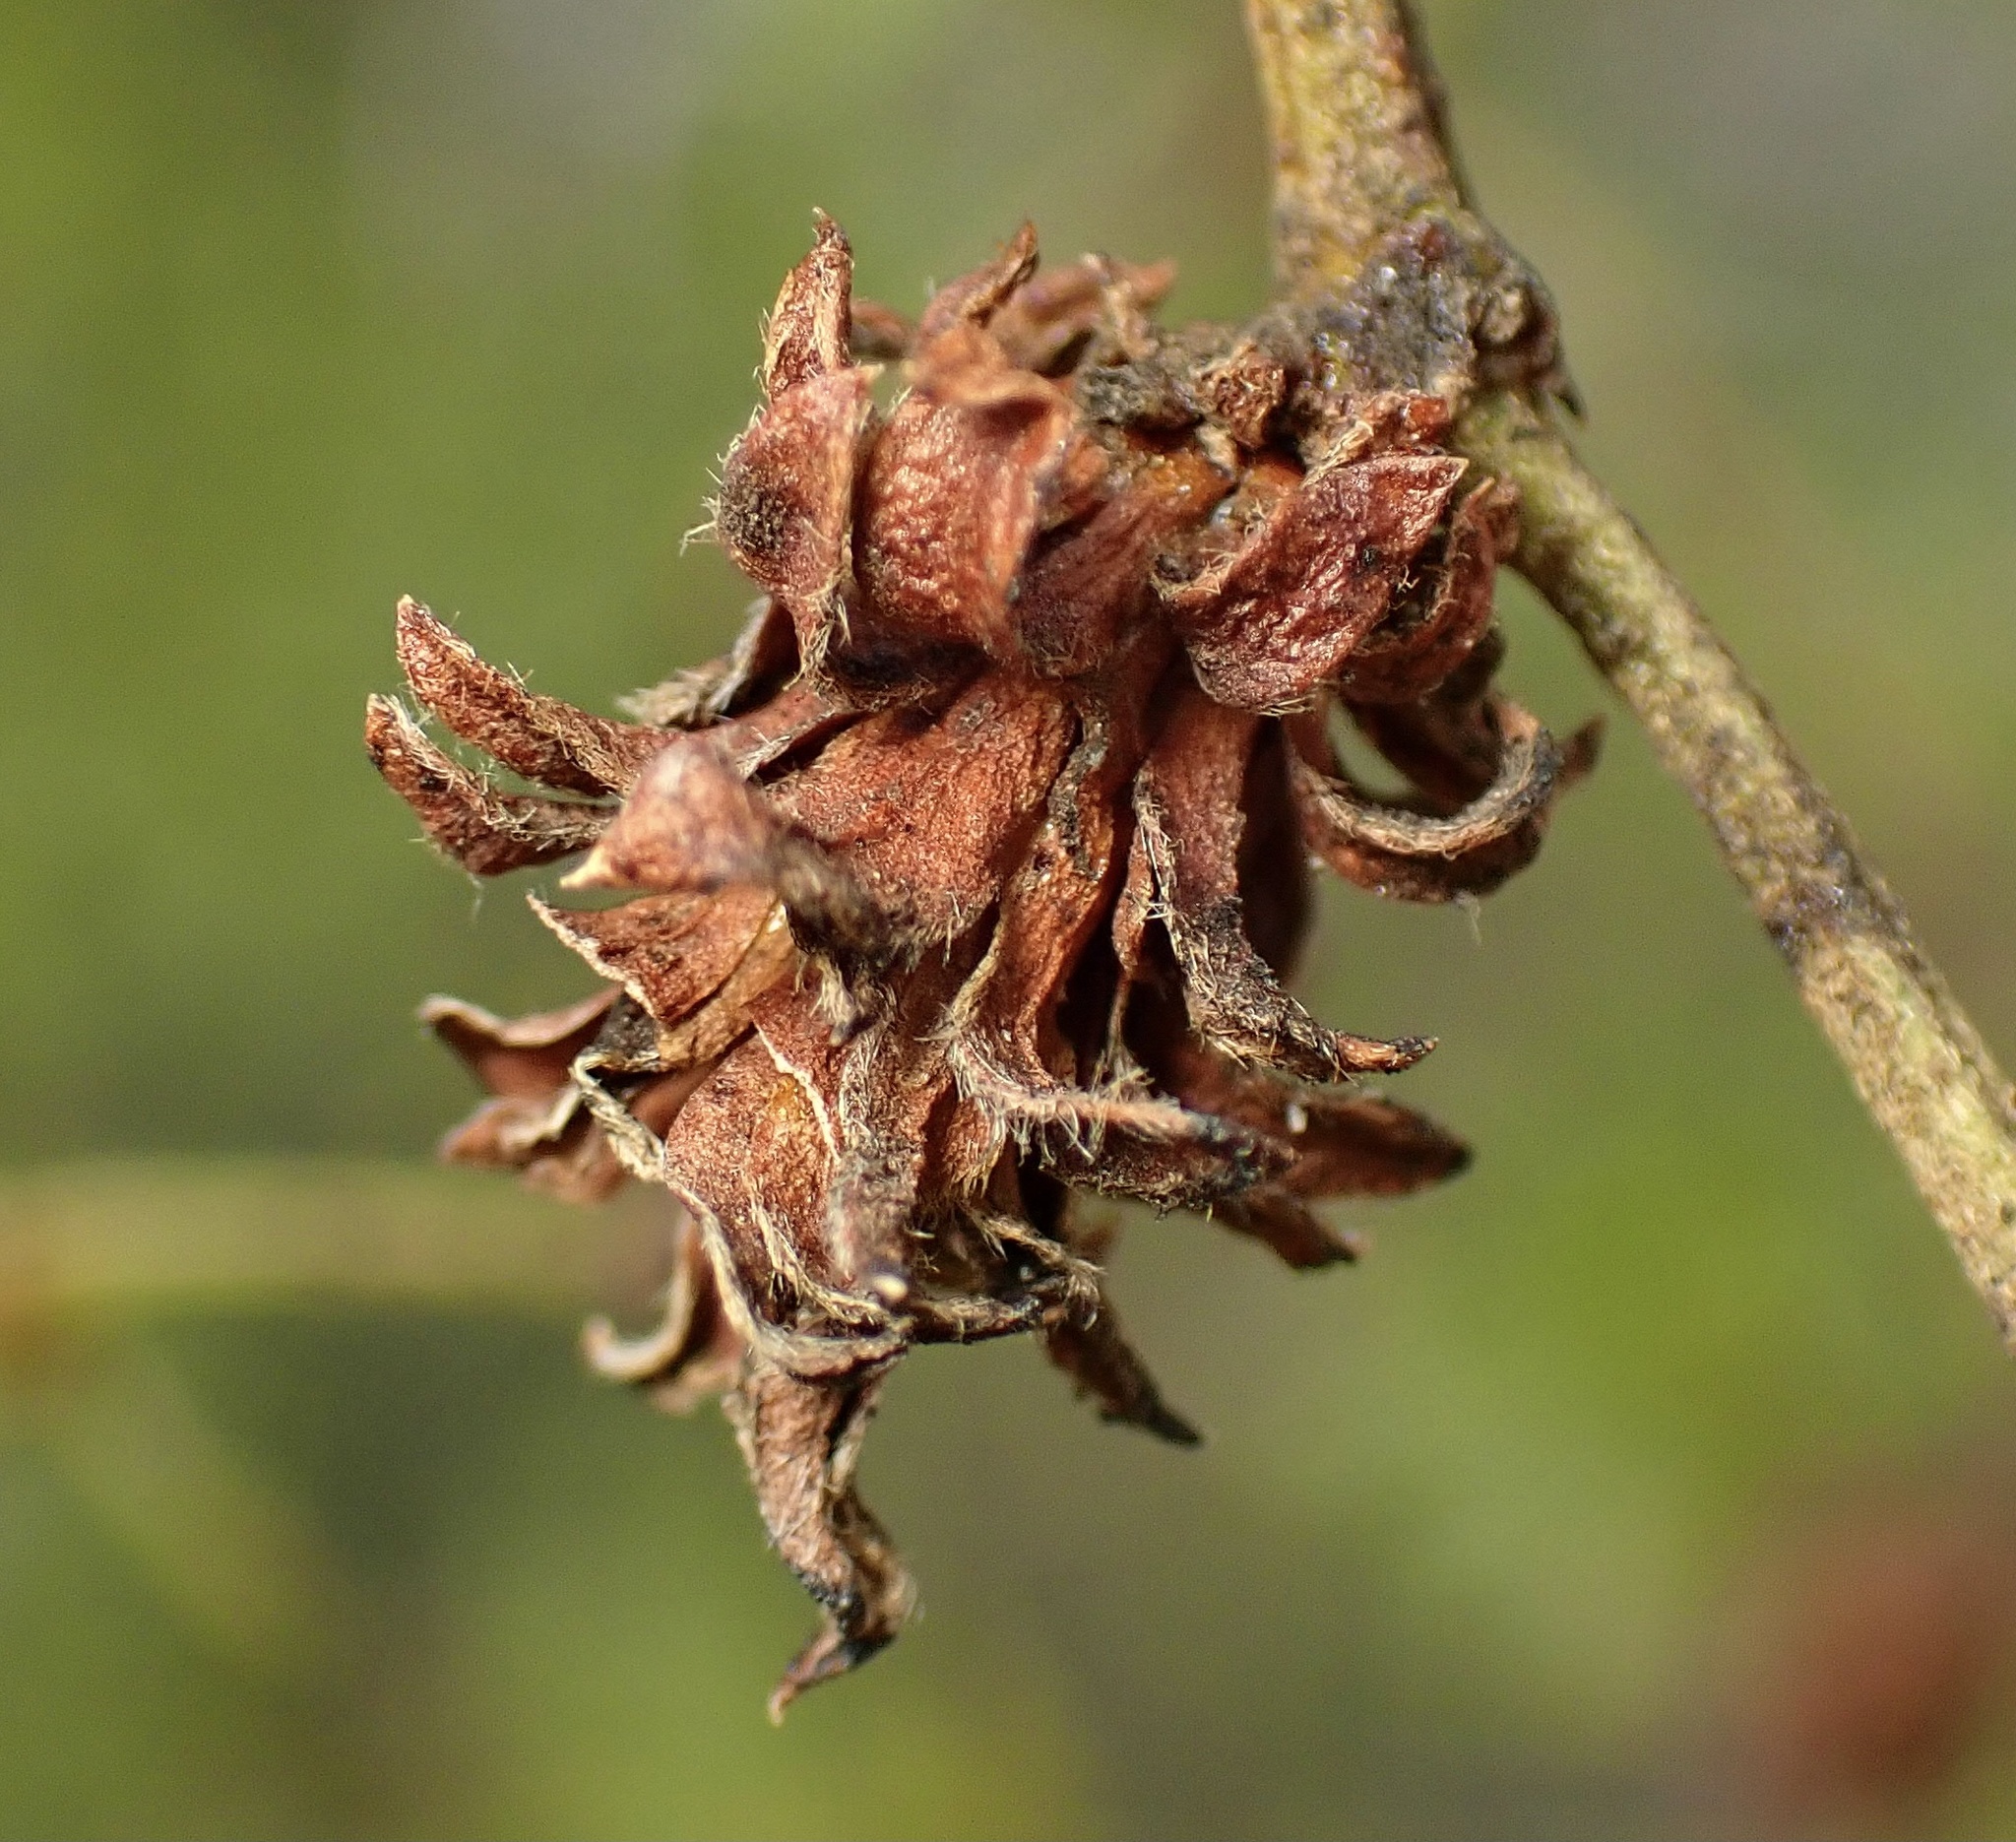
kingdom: Animalia
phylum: Arthropoda
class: Insecta
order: Diptera
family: Cecidomyiidae
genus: Asphondylia
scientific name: Asphondylia rosetta
